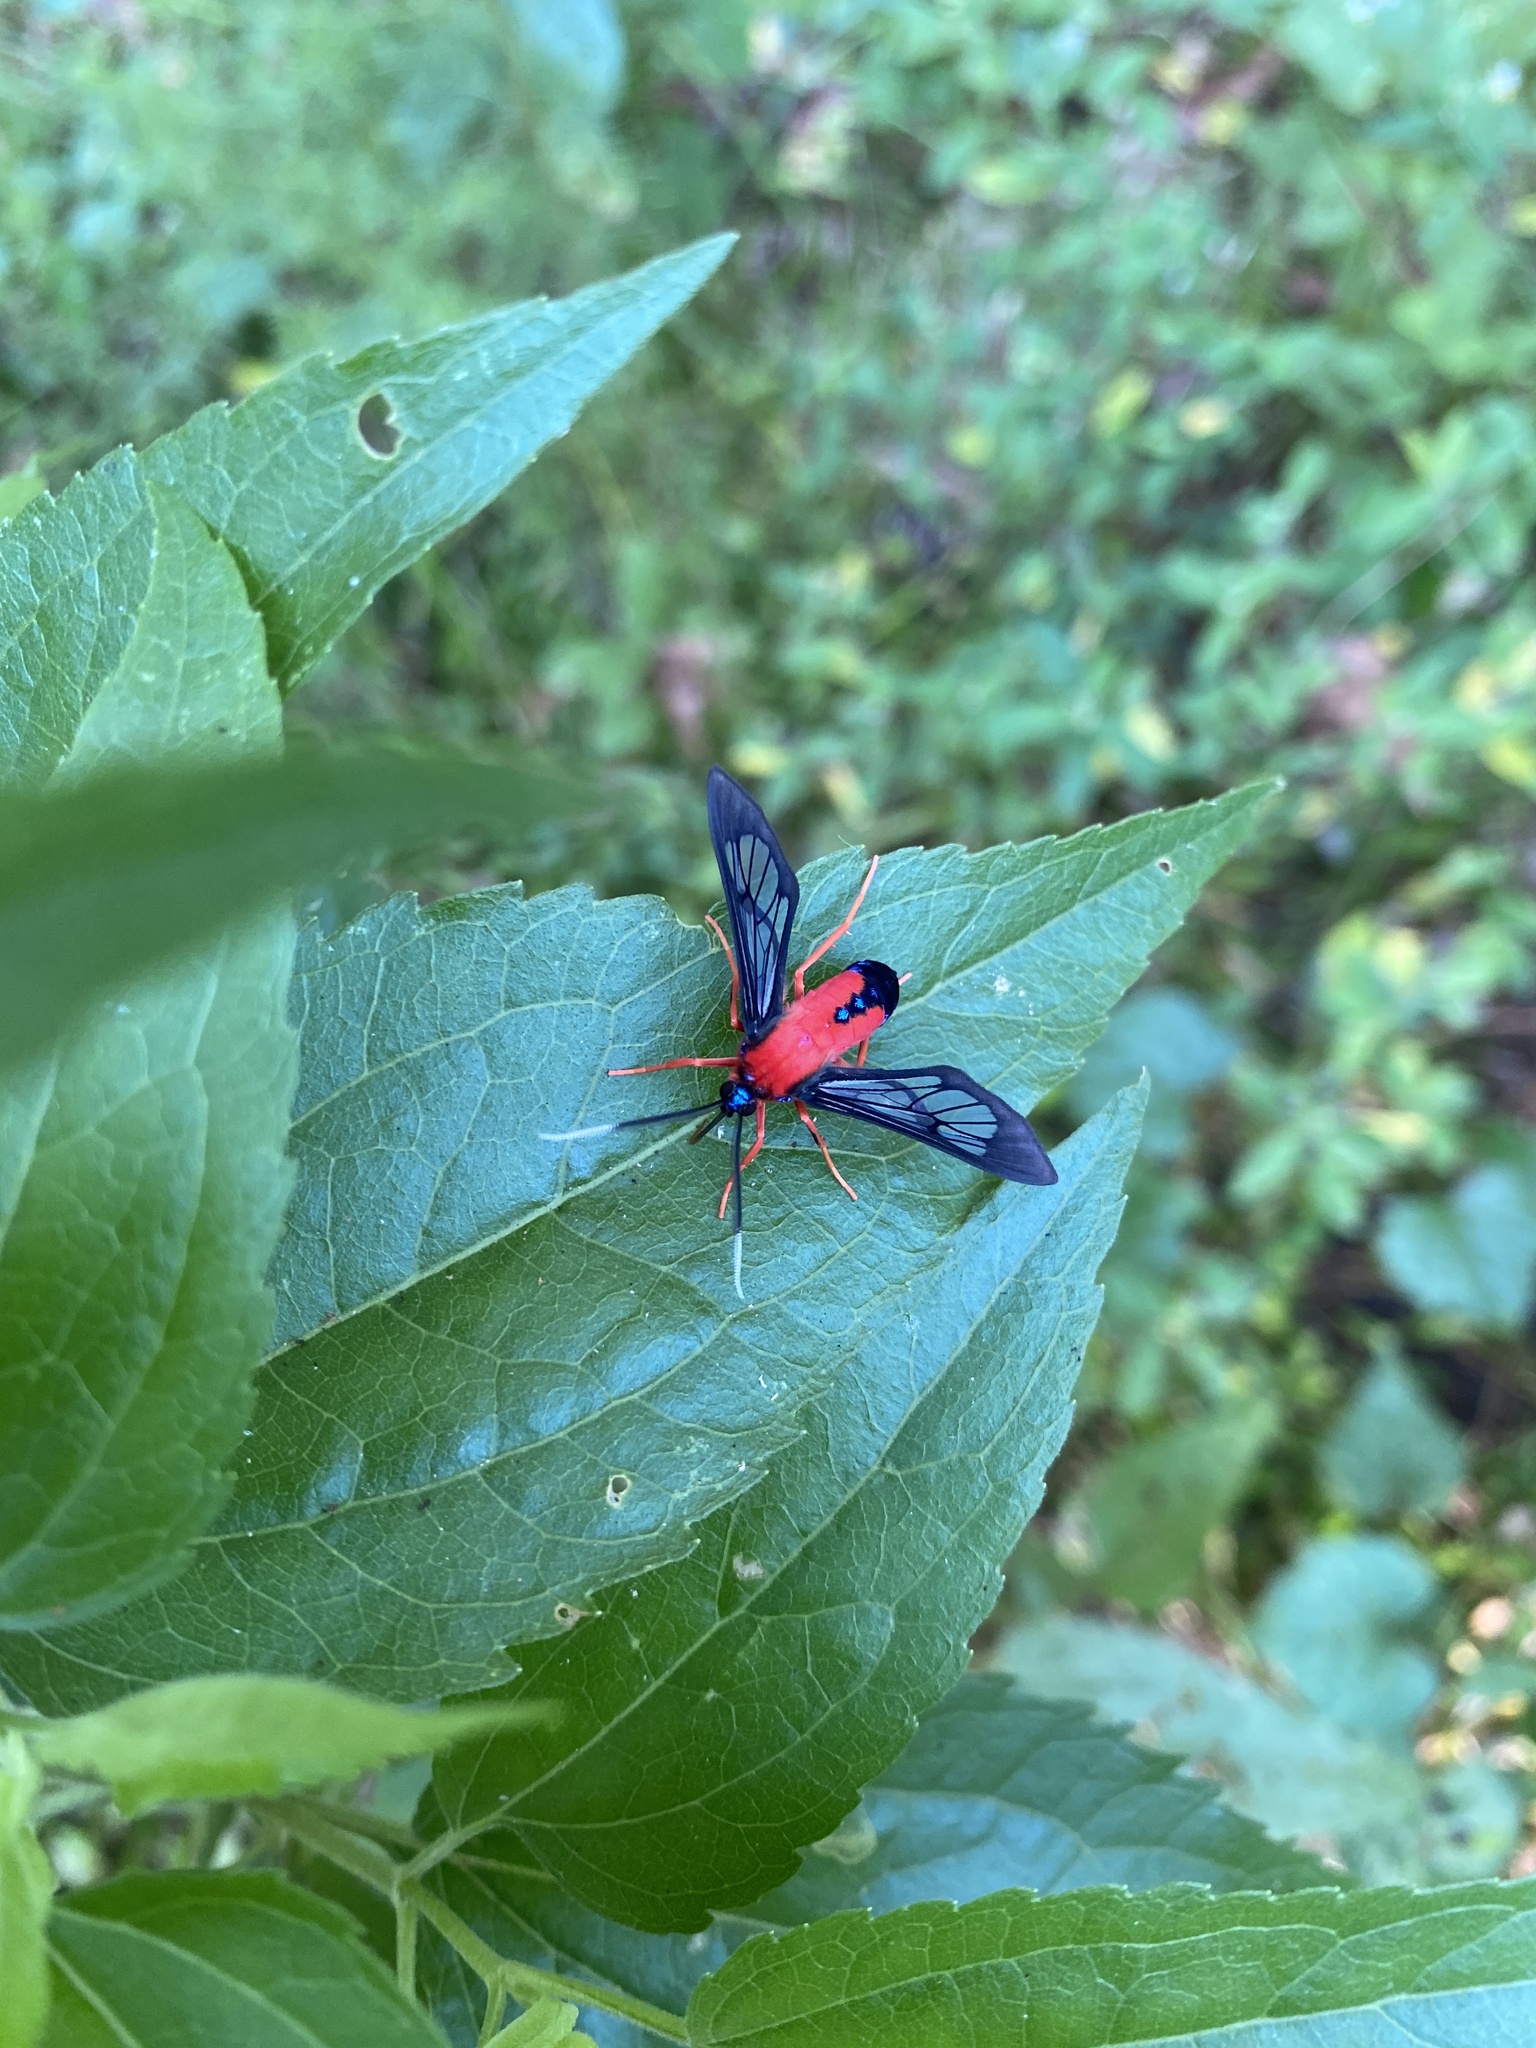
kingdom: Animalia
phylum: Arthropoda
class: Insecta
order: Lepidoptera
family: Erebidae
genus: Cosmosoma
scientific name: Cosmosoma myrodora
